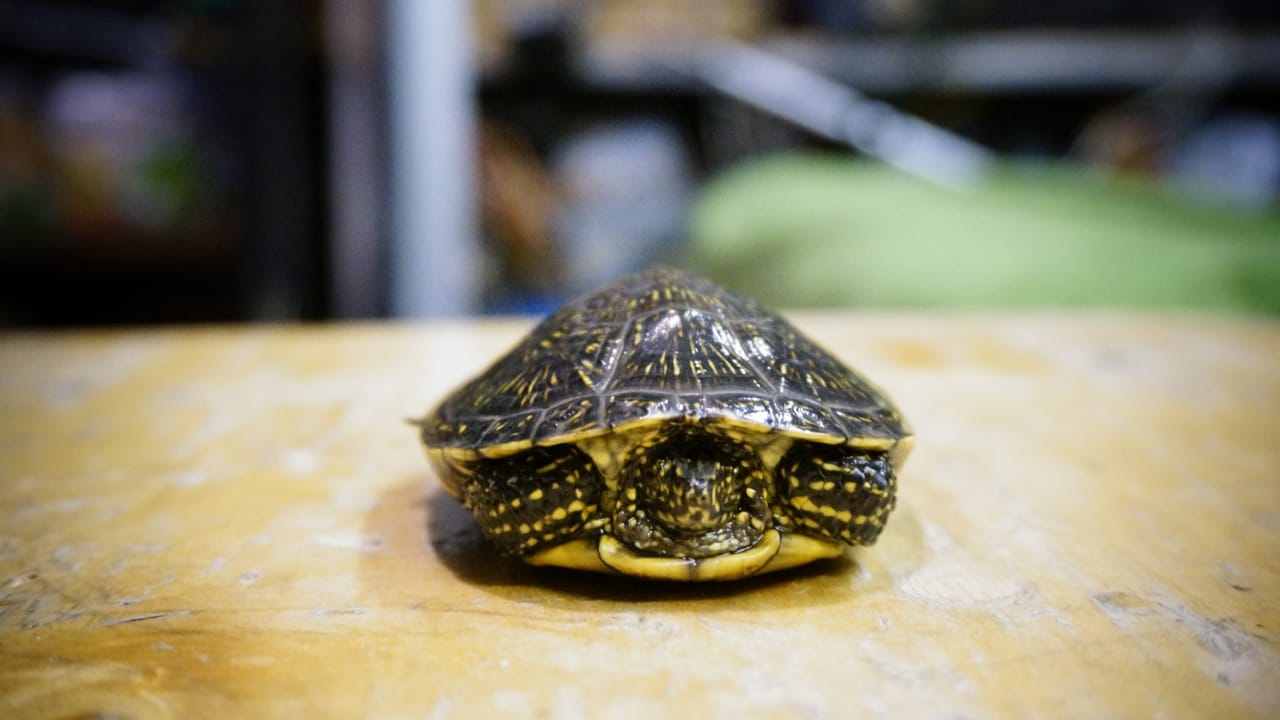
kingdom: Animalia
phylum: Chordata
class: Testudines
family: Emydidae
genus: Emys
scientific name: Emys orbicularis
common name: European pond turtle
